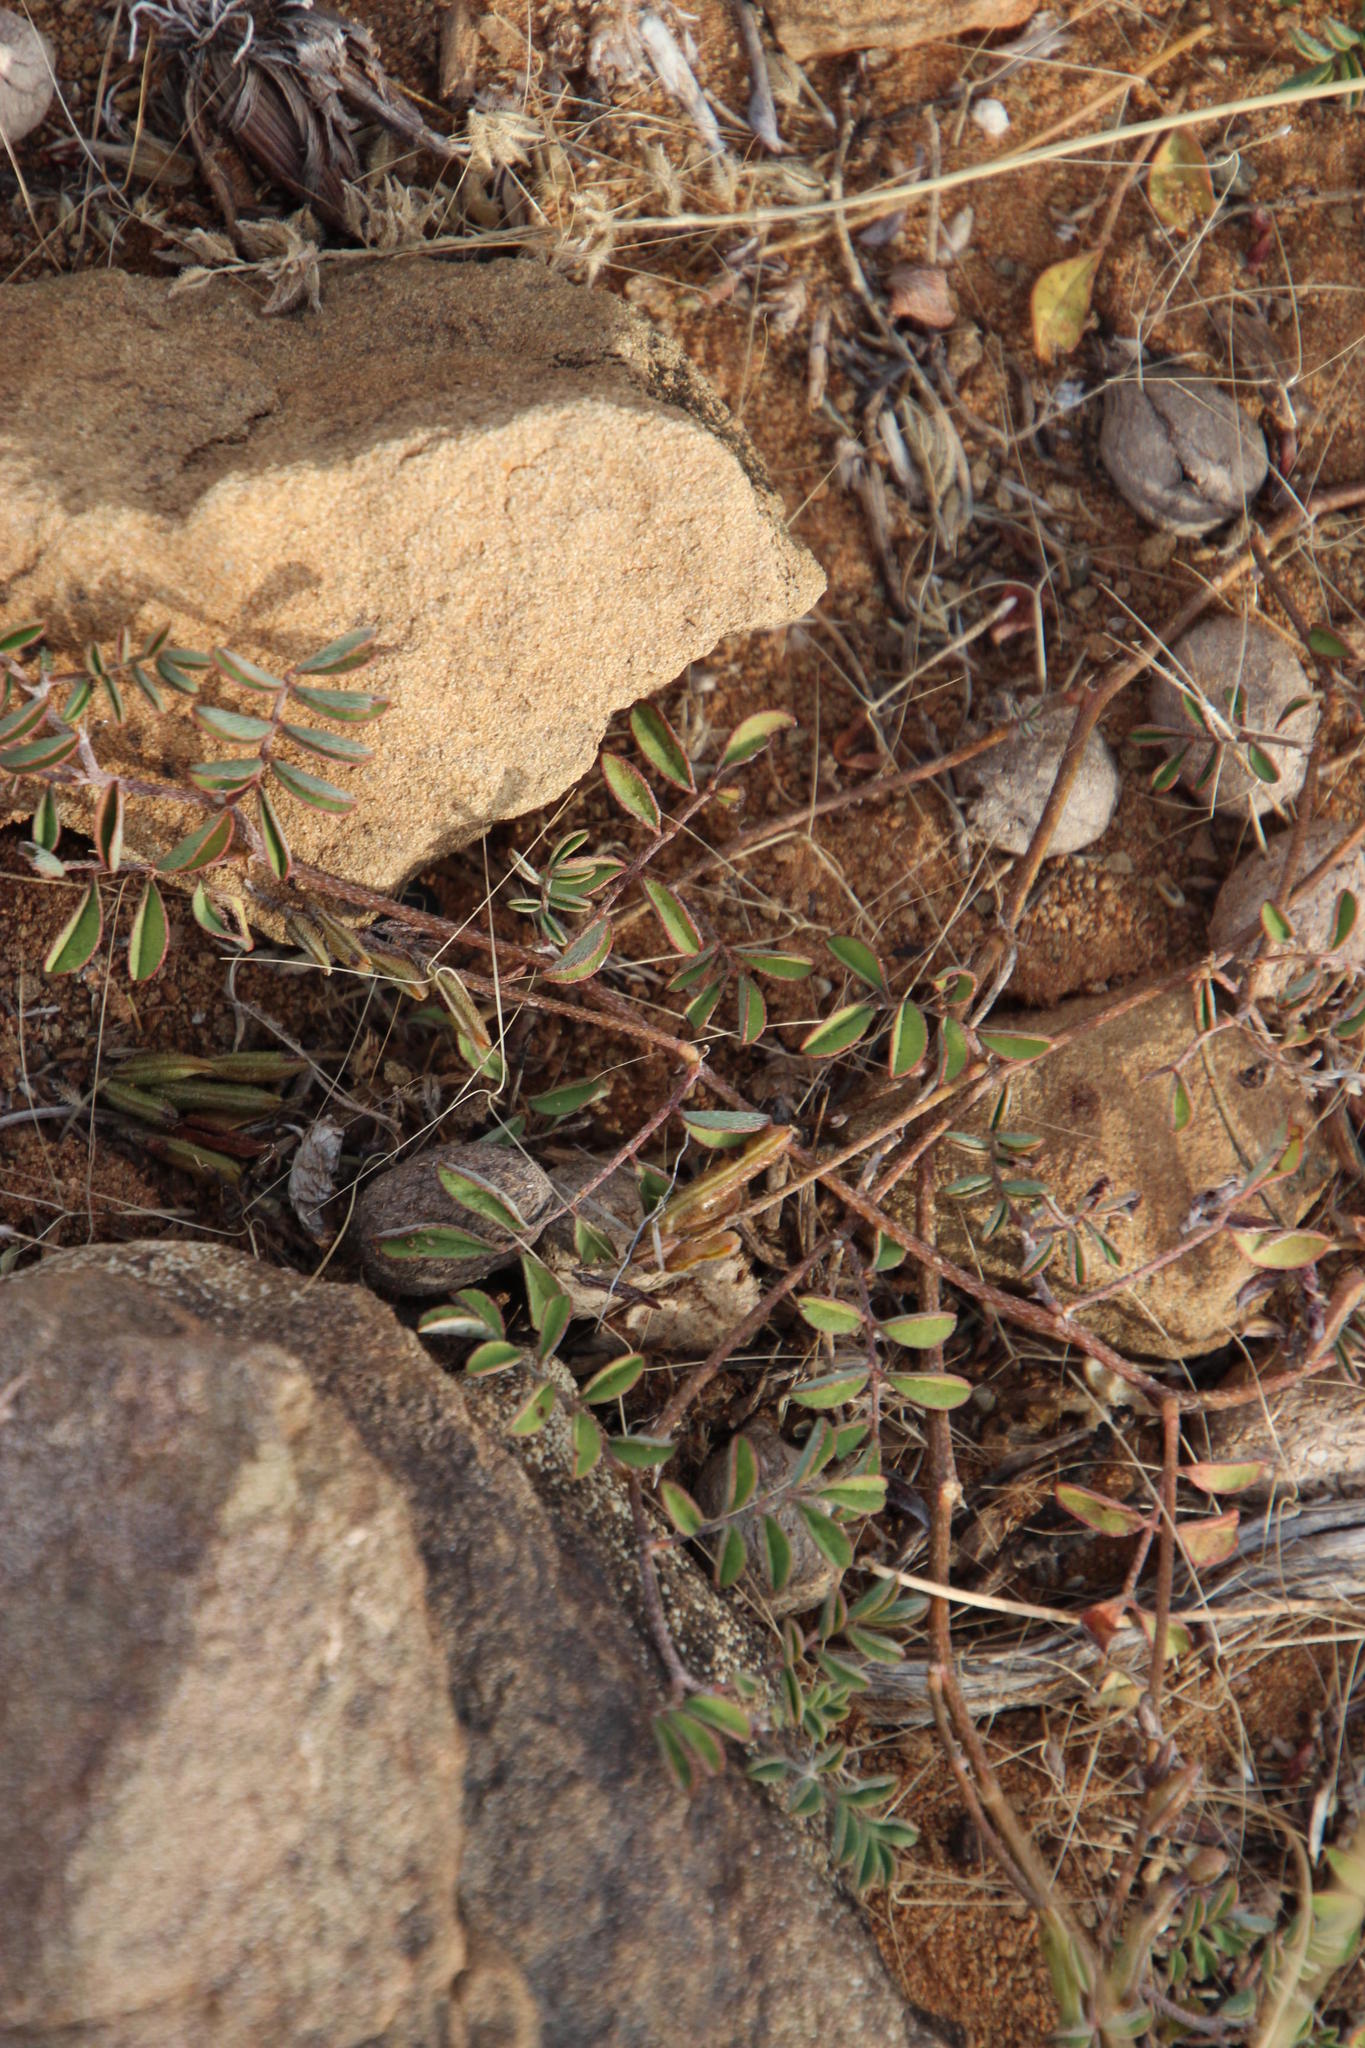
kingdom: Plantae
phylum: Tracheophyta
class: Magnoliopsida
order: Fabales
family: Fabaceae
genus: Indigofera
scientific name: Indigofera alternans
